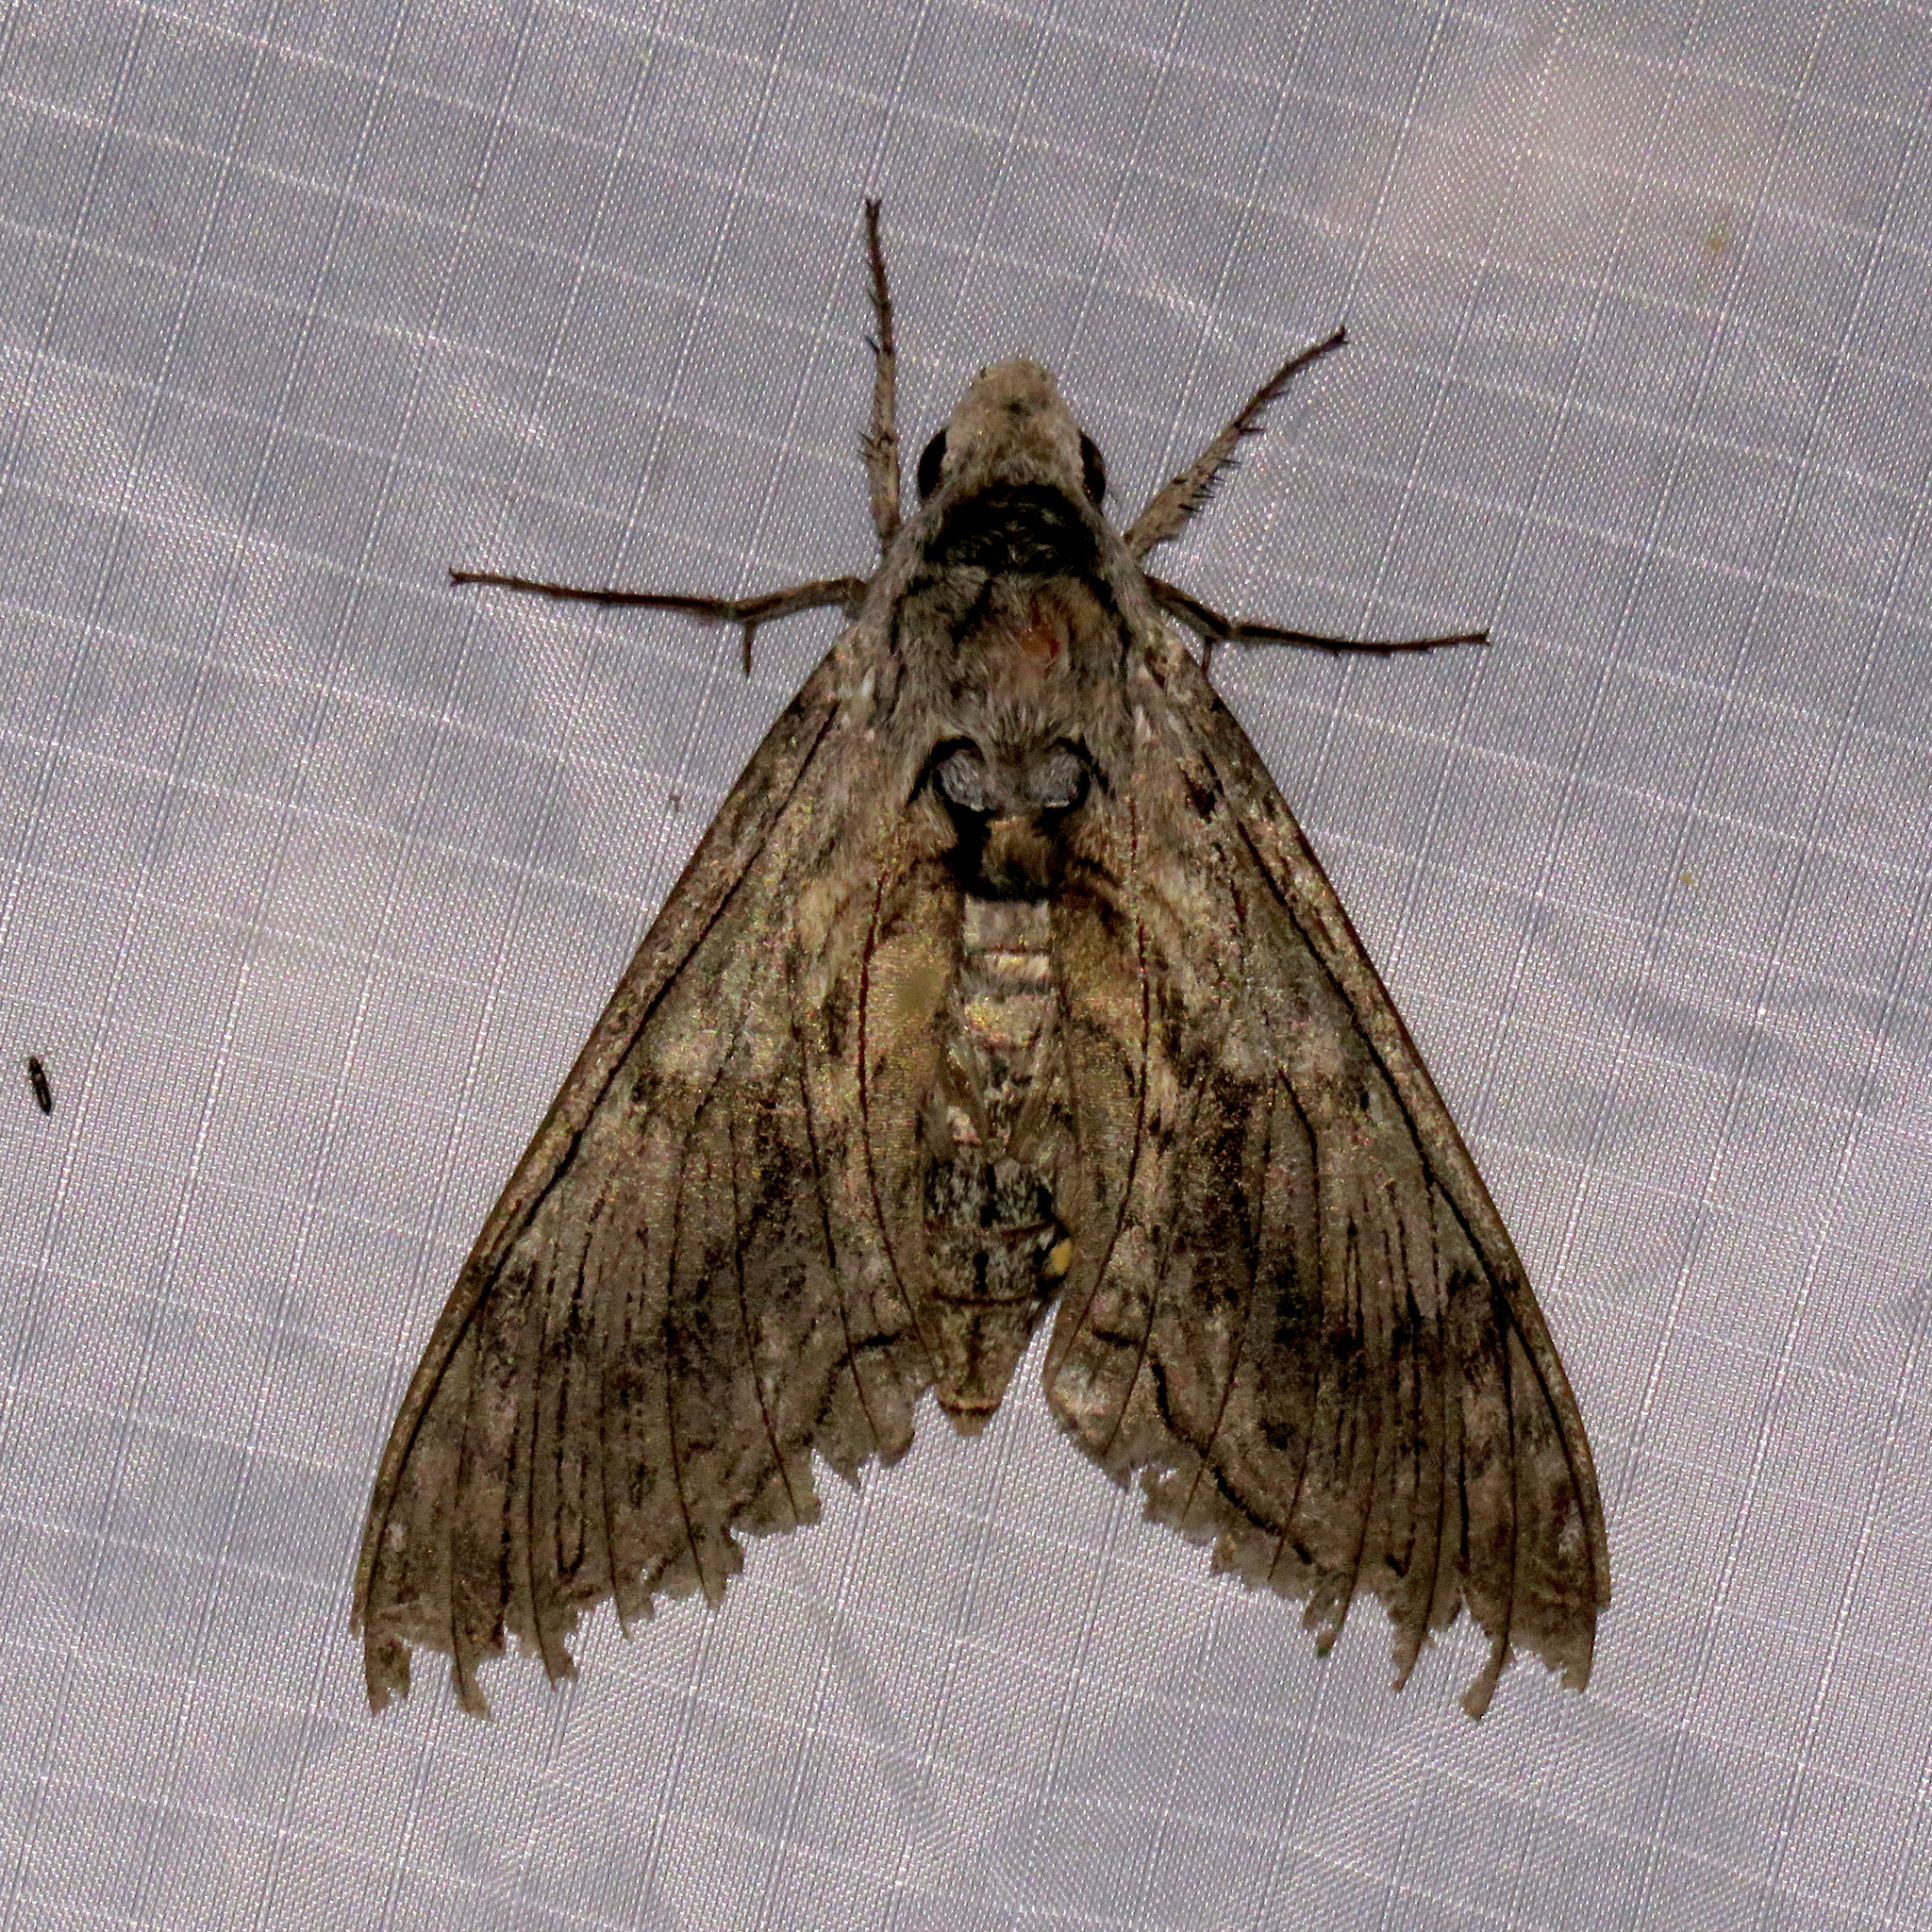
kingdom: Animalia
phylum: Arthropoda
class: Insecta
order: Lepidoptera
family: Sphingidae
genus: Manduca
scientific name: Manduca quinquemaculatus
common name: Five-spotted hawk-moth
